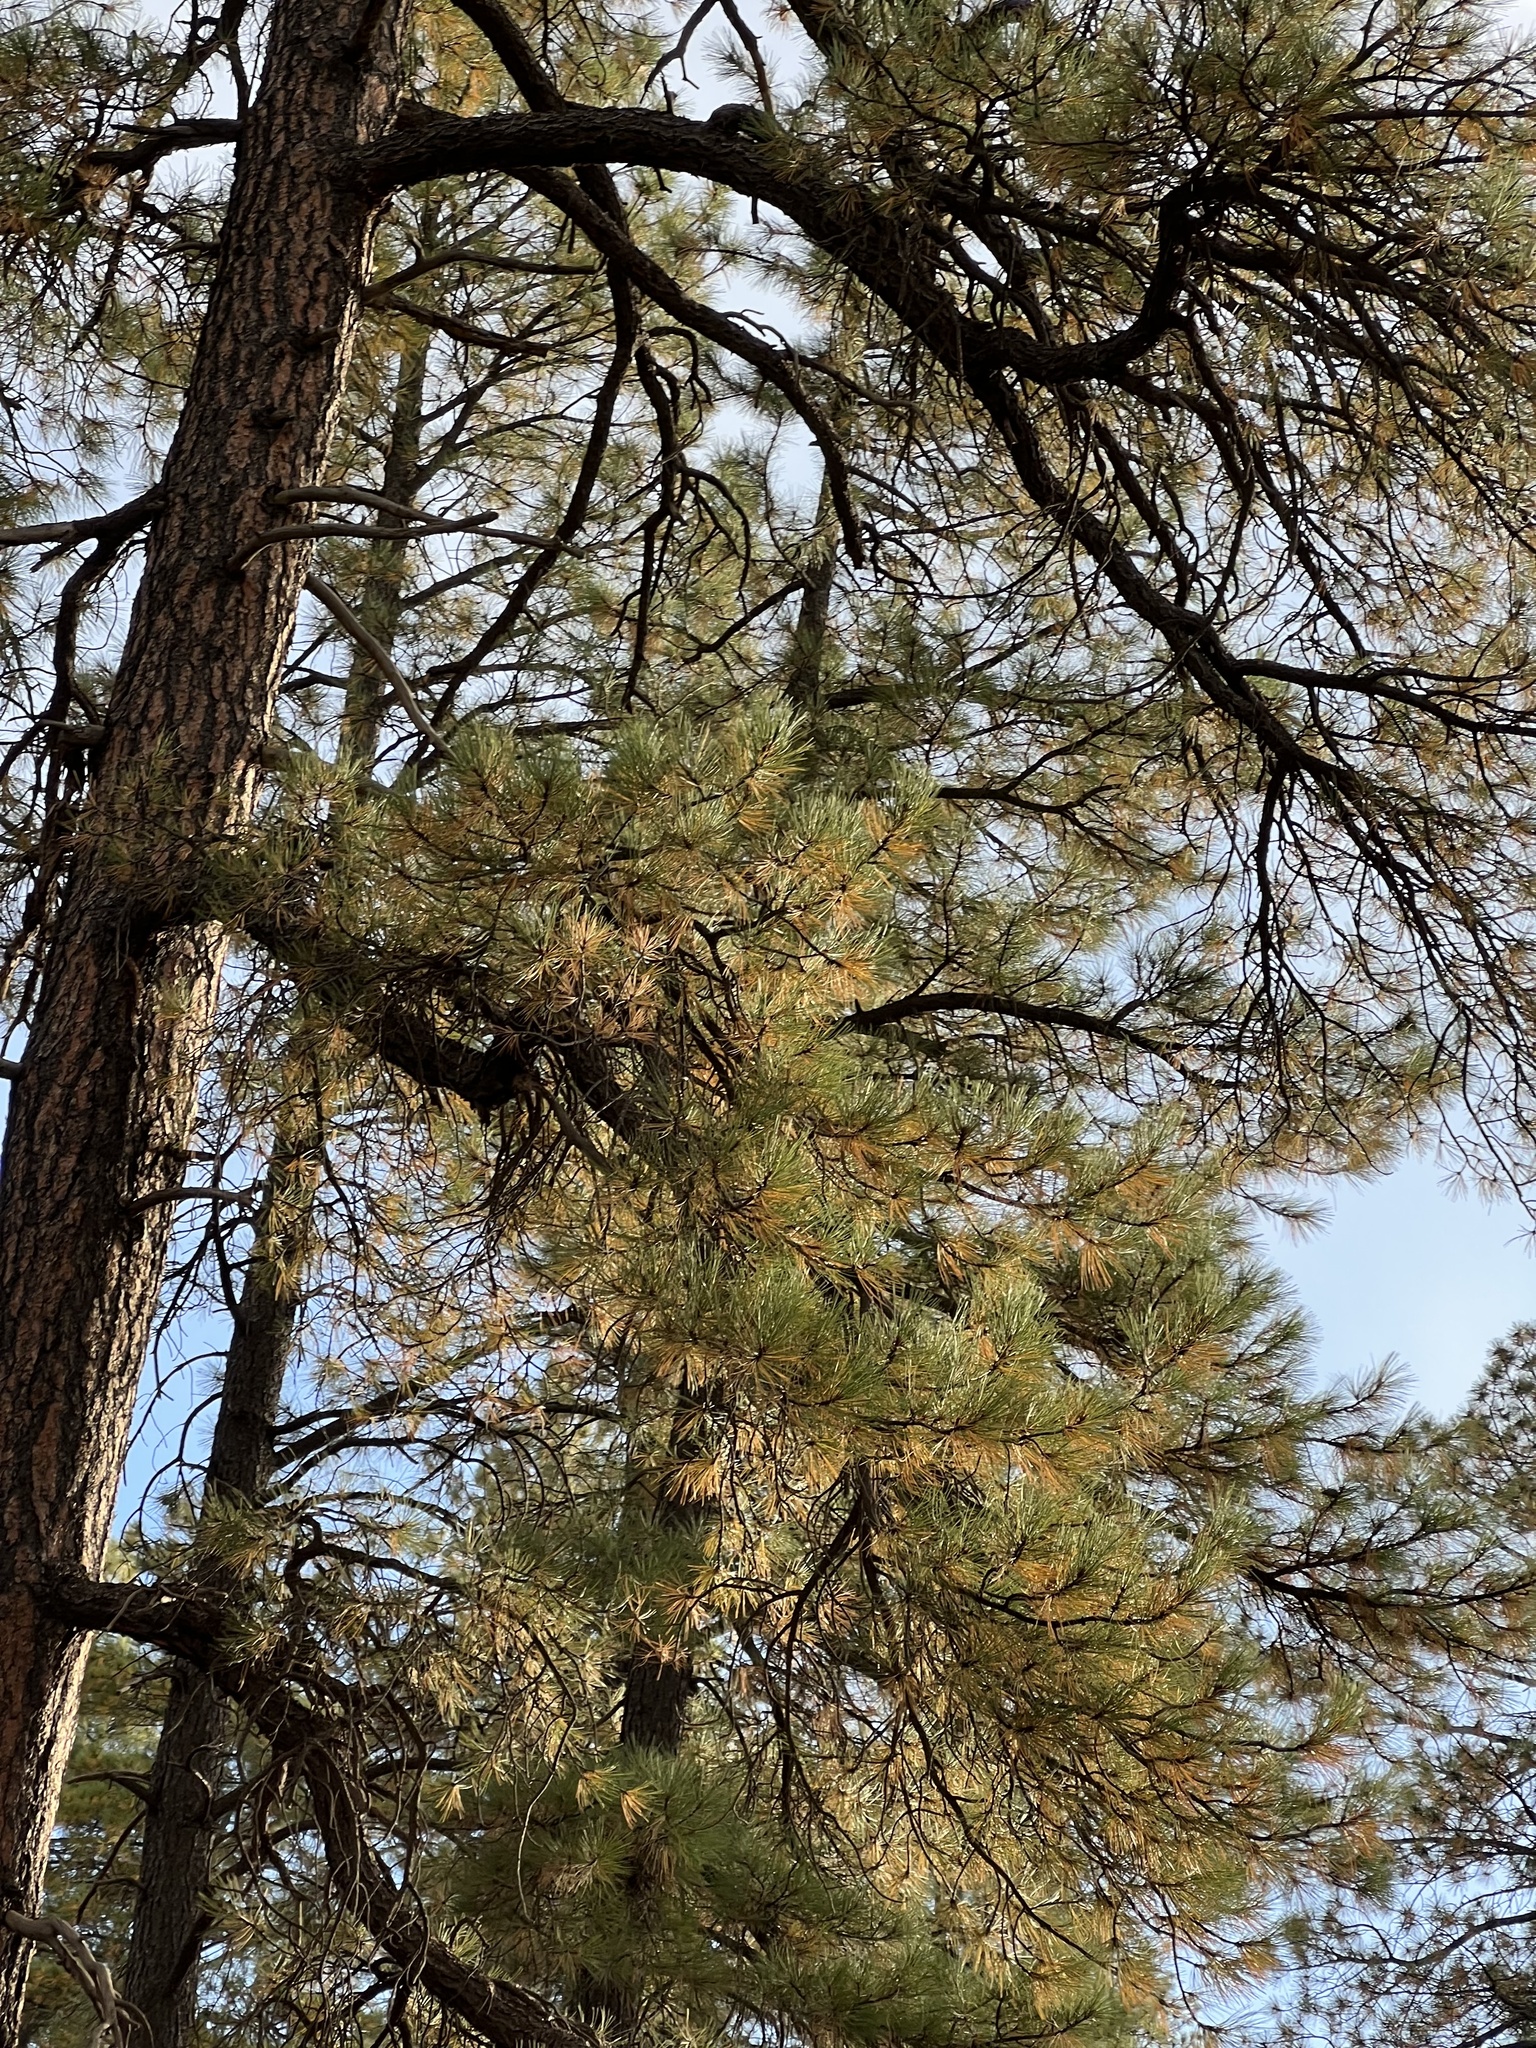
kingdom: Plantae
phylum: Tracheophyta
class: Pinopsida
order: Pinales
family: Pinaceae
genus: Pinus
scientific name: Pinus ponderosa
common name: Western yellow-pine
